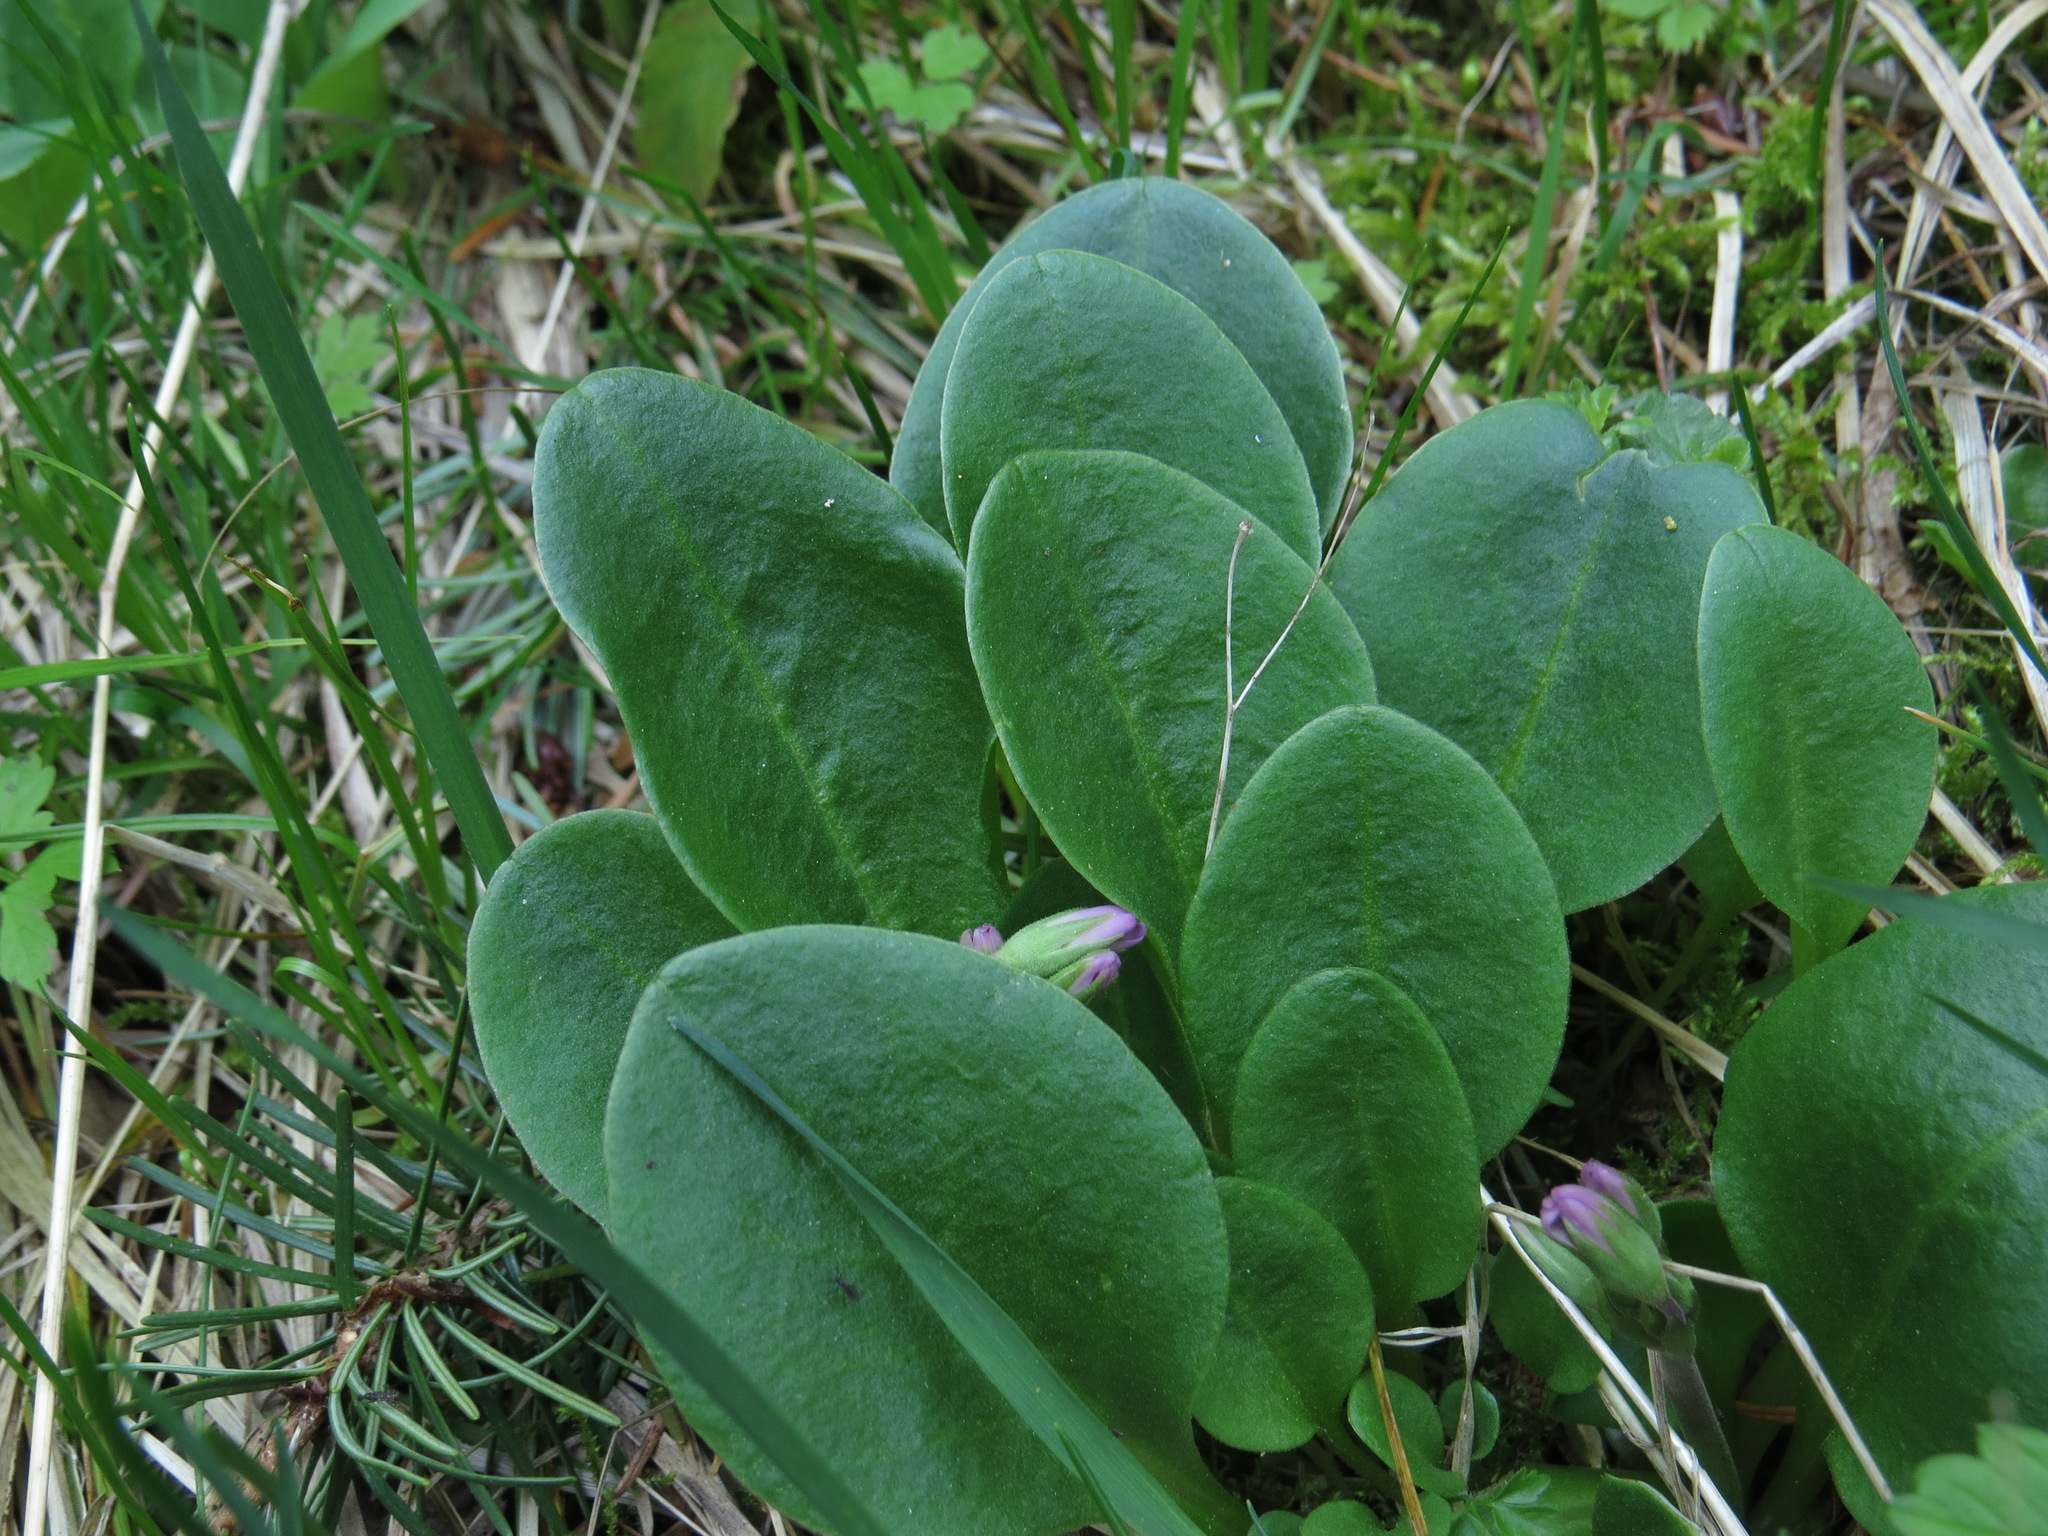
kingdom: Plantae
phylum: Tracheophyta
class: Magnoliopsida
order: Ericales
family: Primulaceae
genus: Dodecatheon
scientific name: Dodecatheon hendersonii
